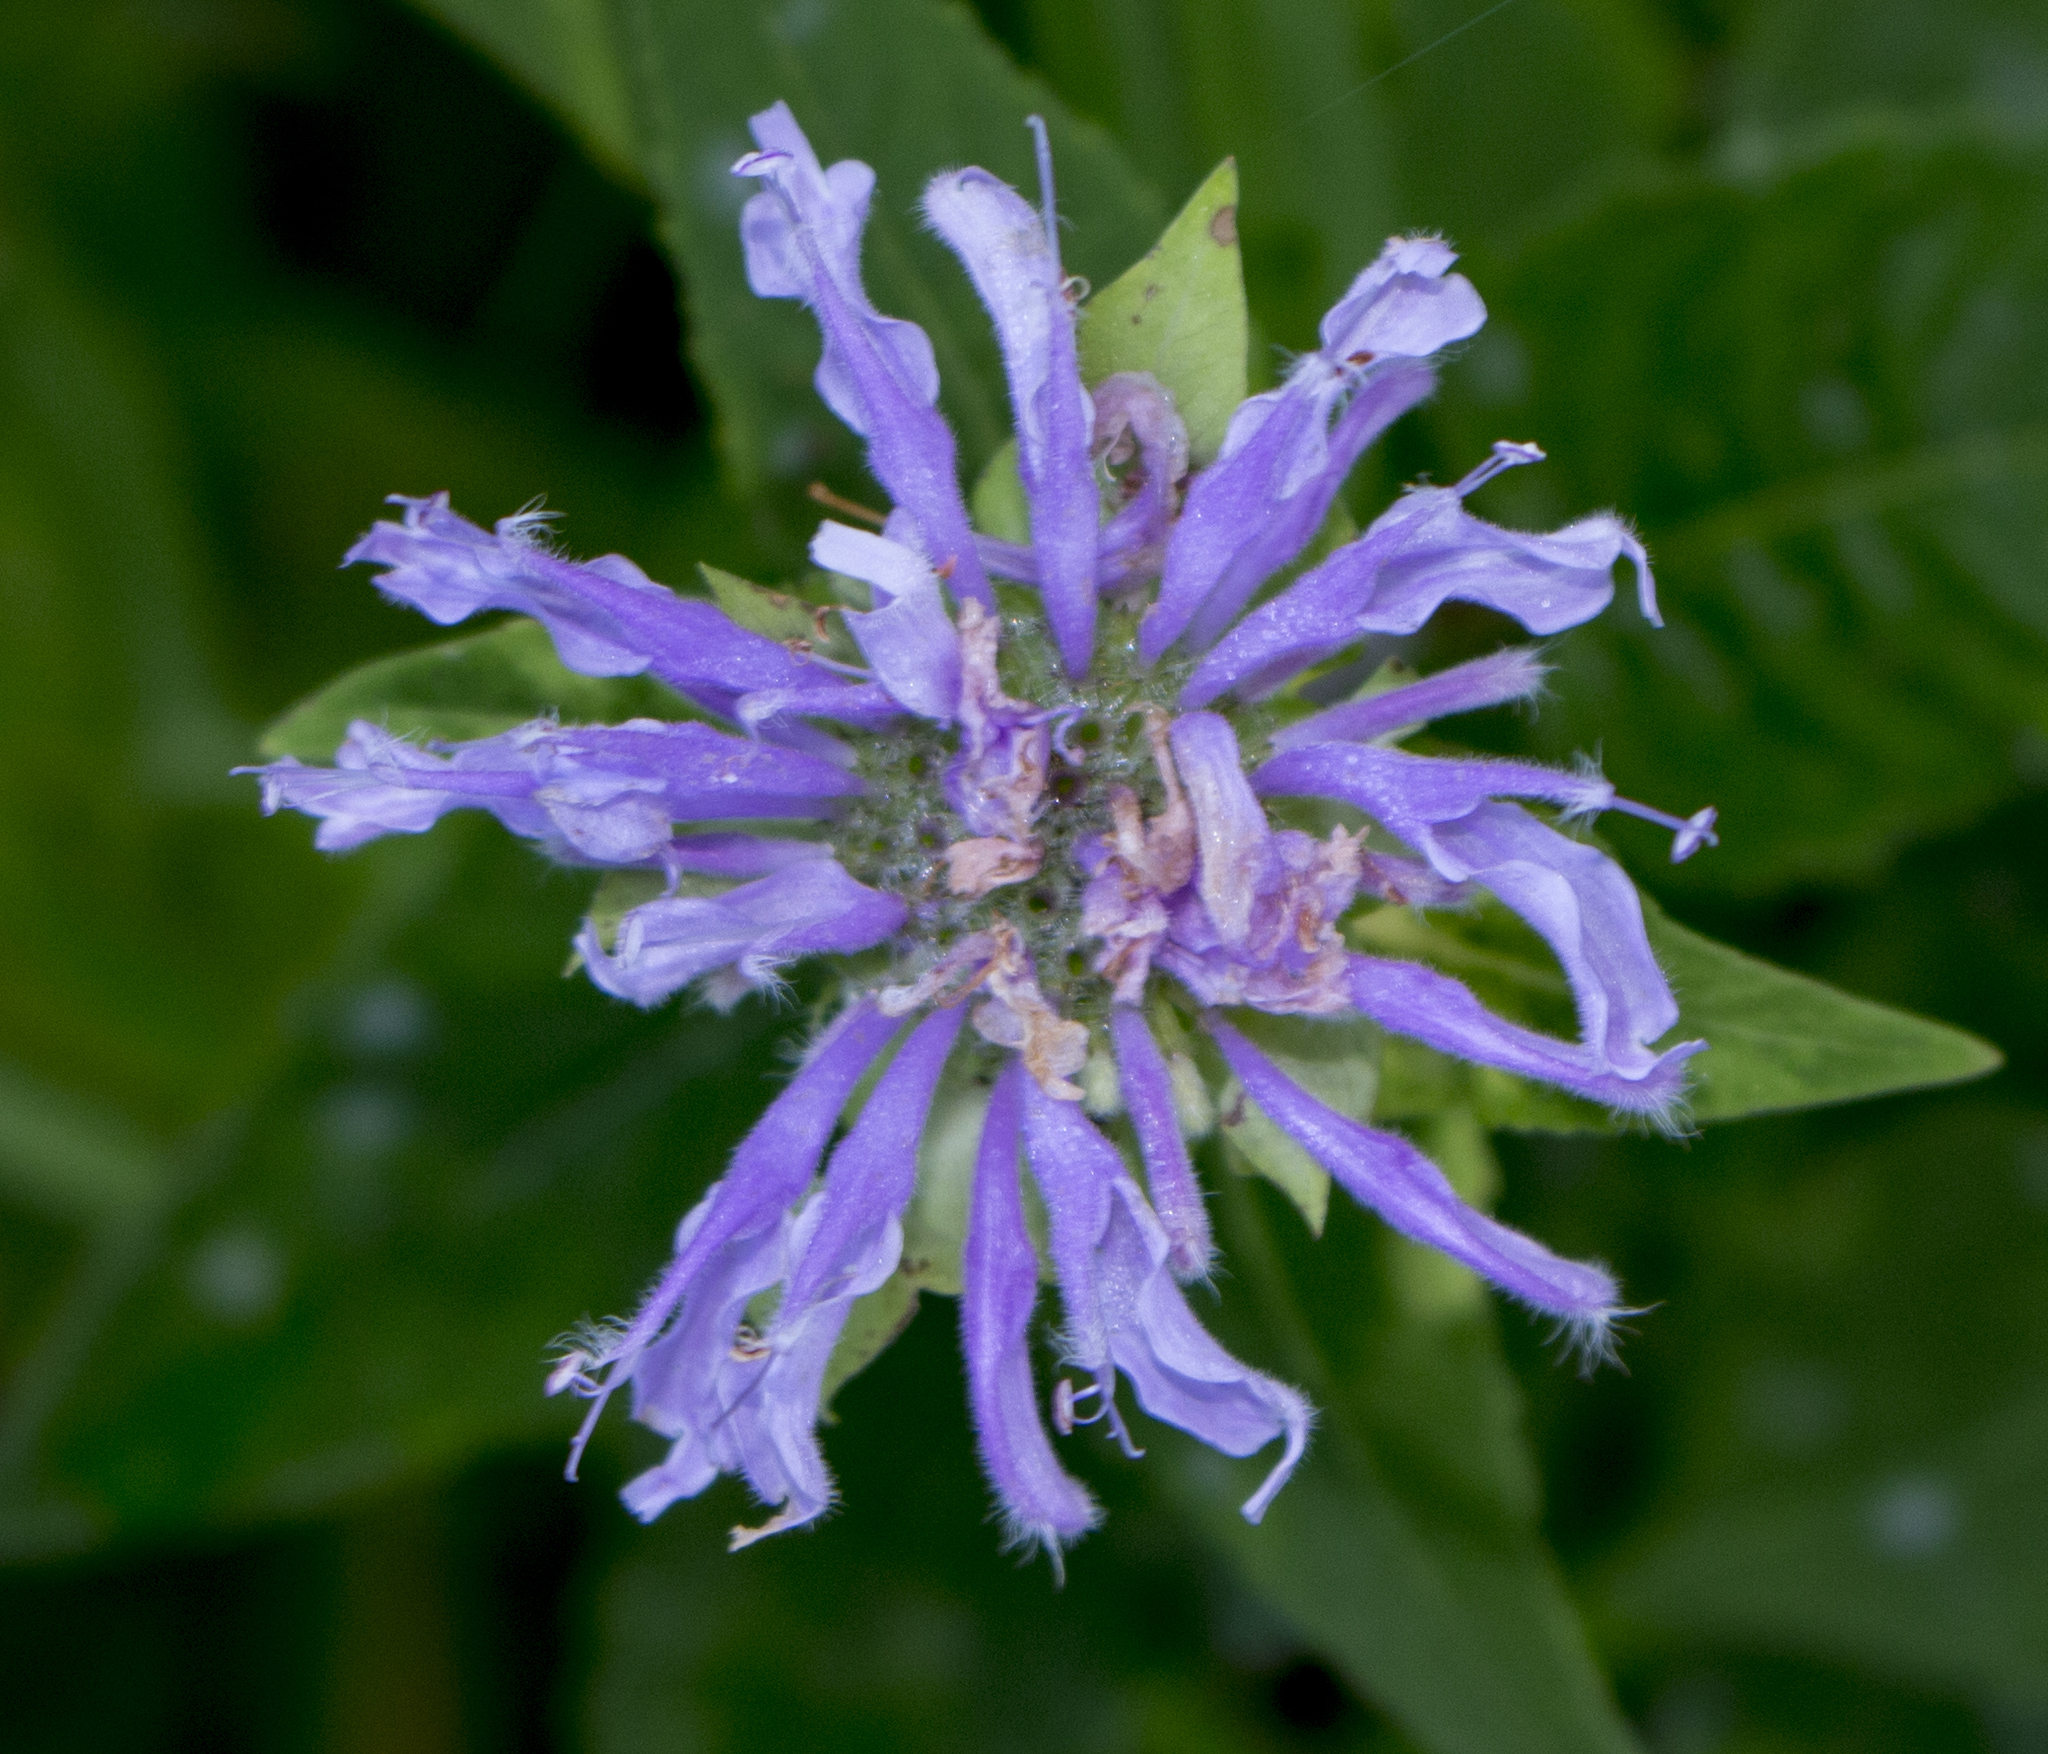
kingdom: Plantae
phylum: Tracheophyta
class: Magnoliopsida
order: Lamiales
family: Lamiaceae
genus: Monarda
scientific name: Monarda fistulosa
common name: Purple beebalm
